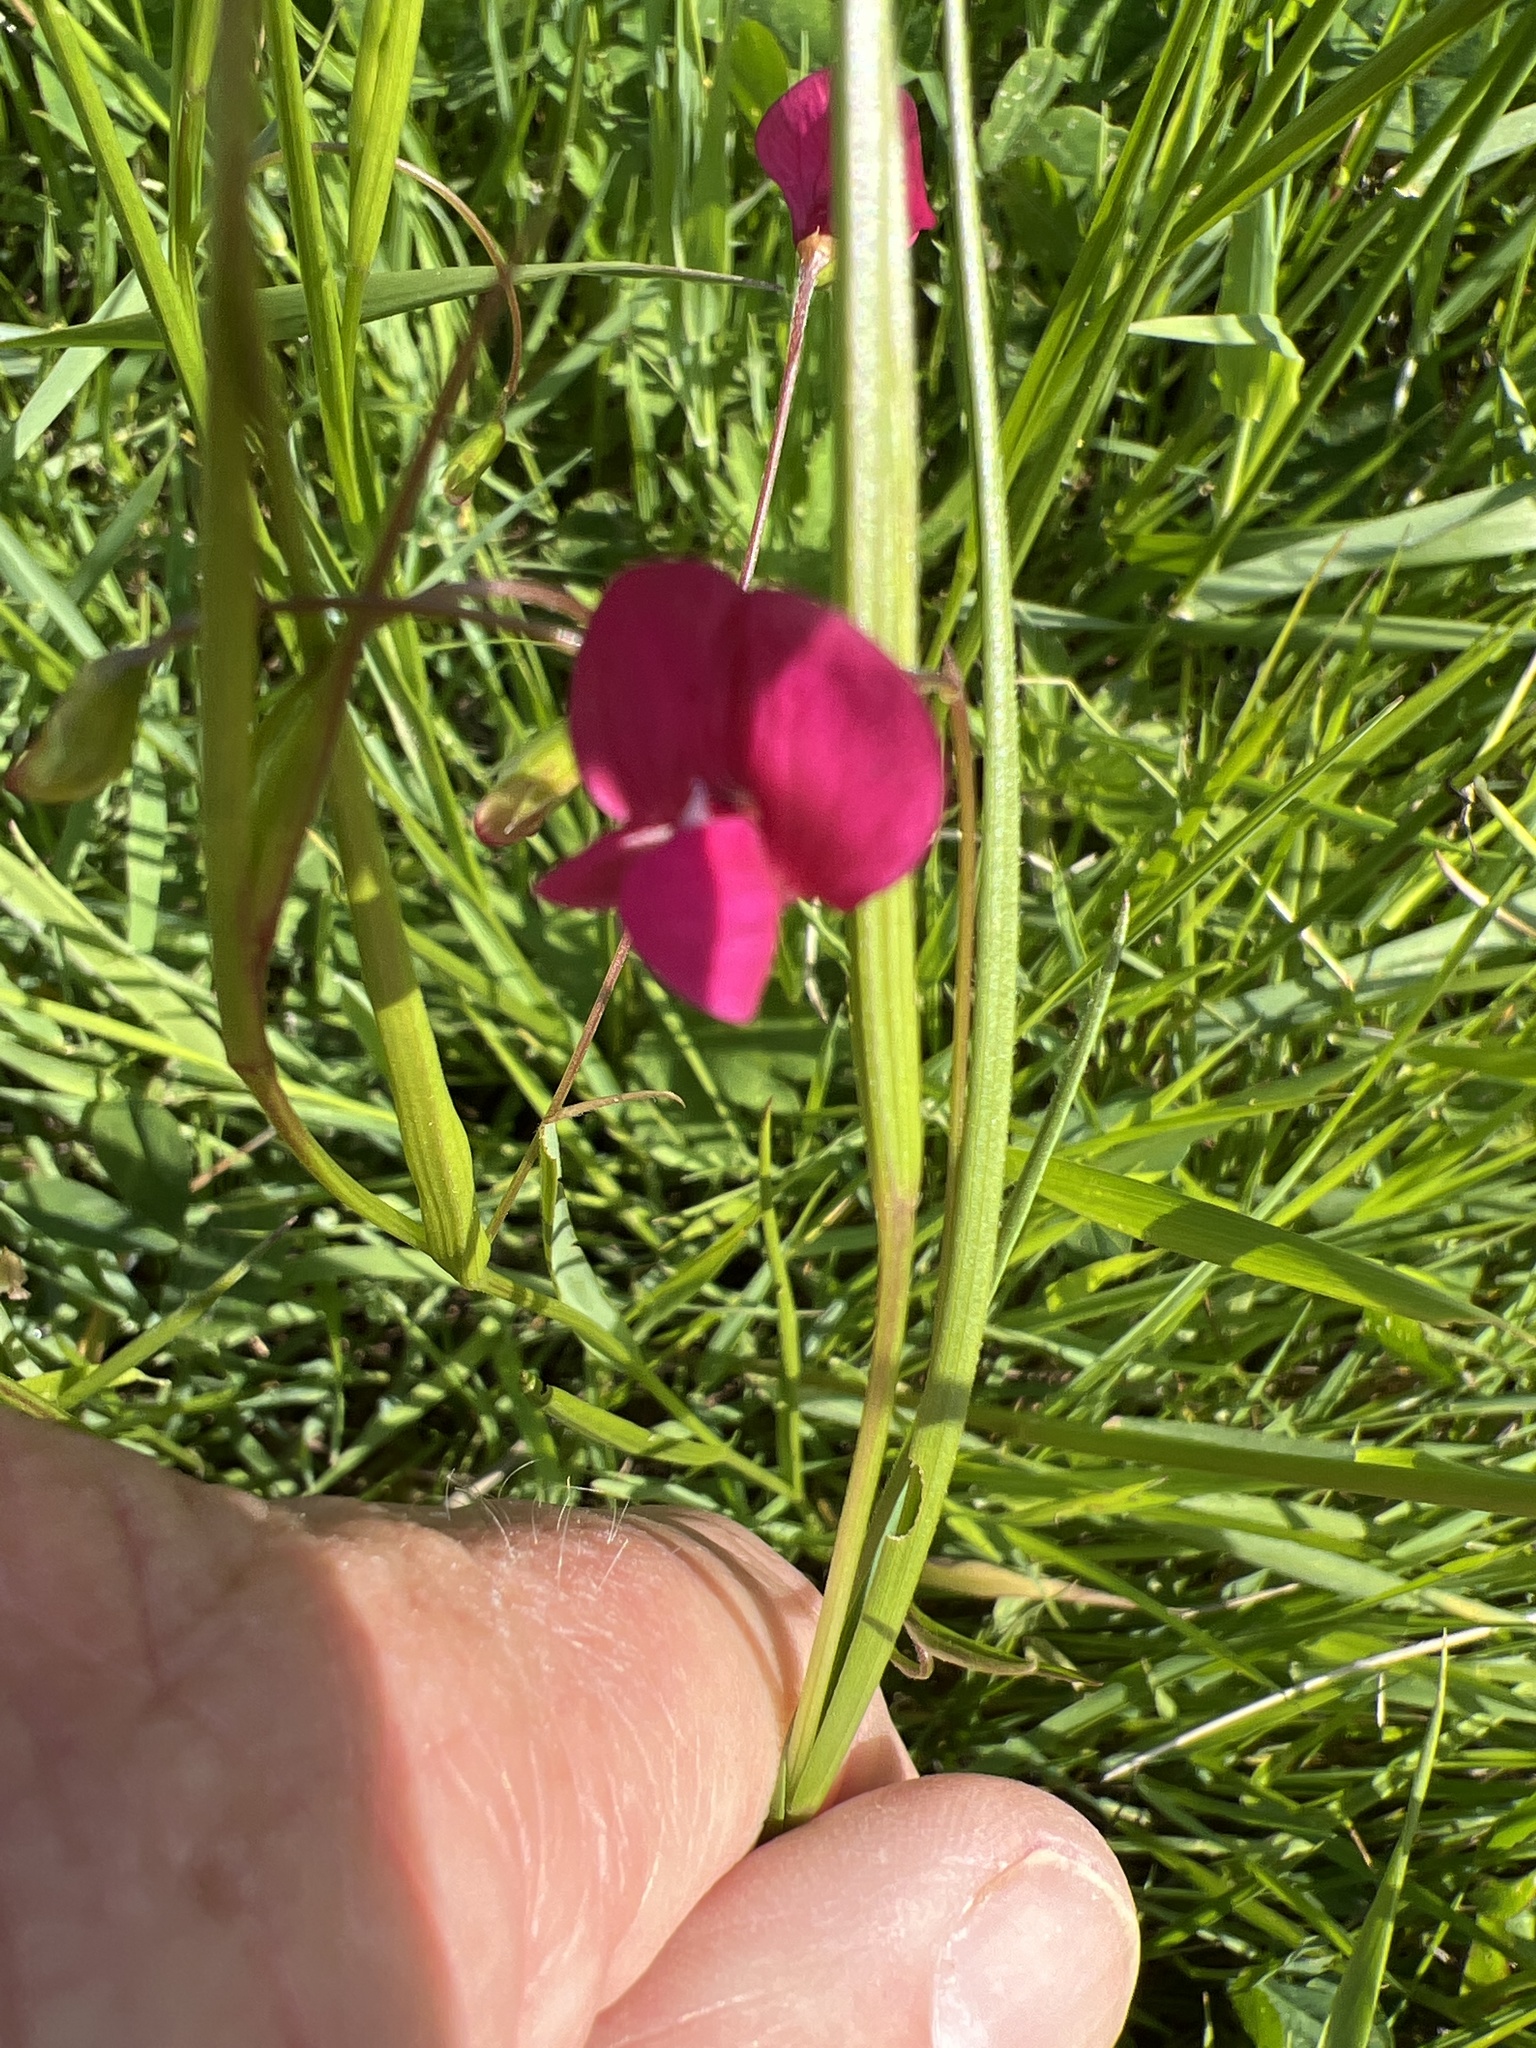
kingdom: Plantae
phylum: Tracheophyta
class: Magnoliopsida
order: Fabales
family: Fabaceae
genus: Lathyrus
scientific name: Lathyrus nissolia
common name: Grass vetchling
